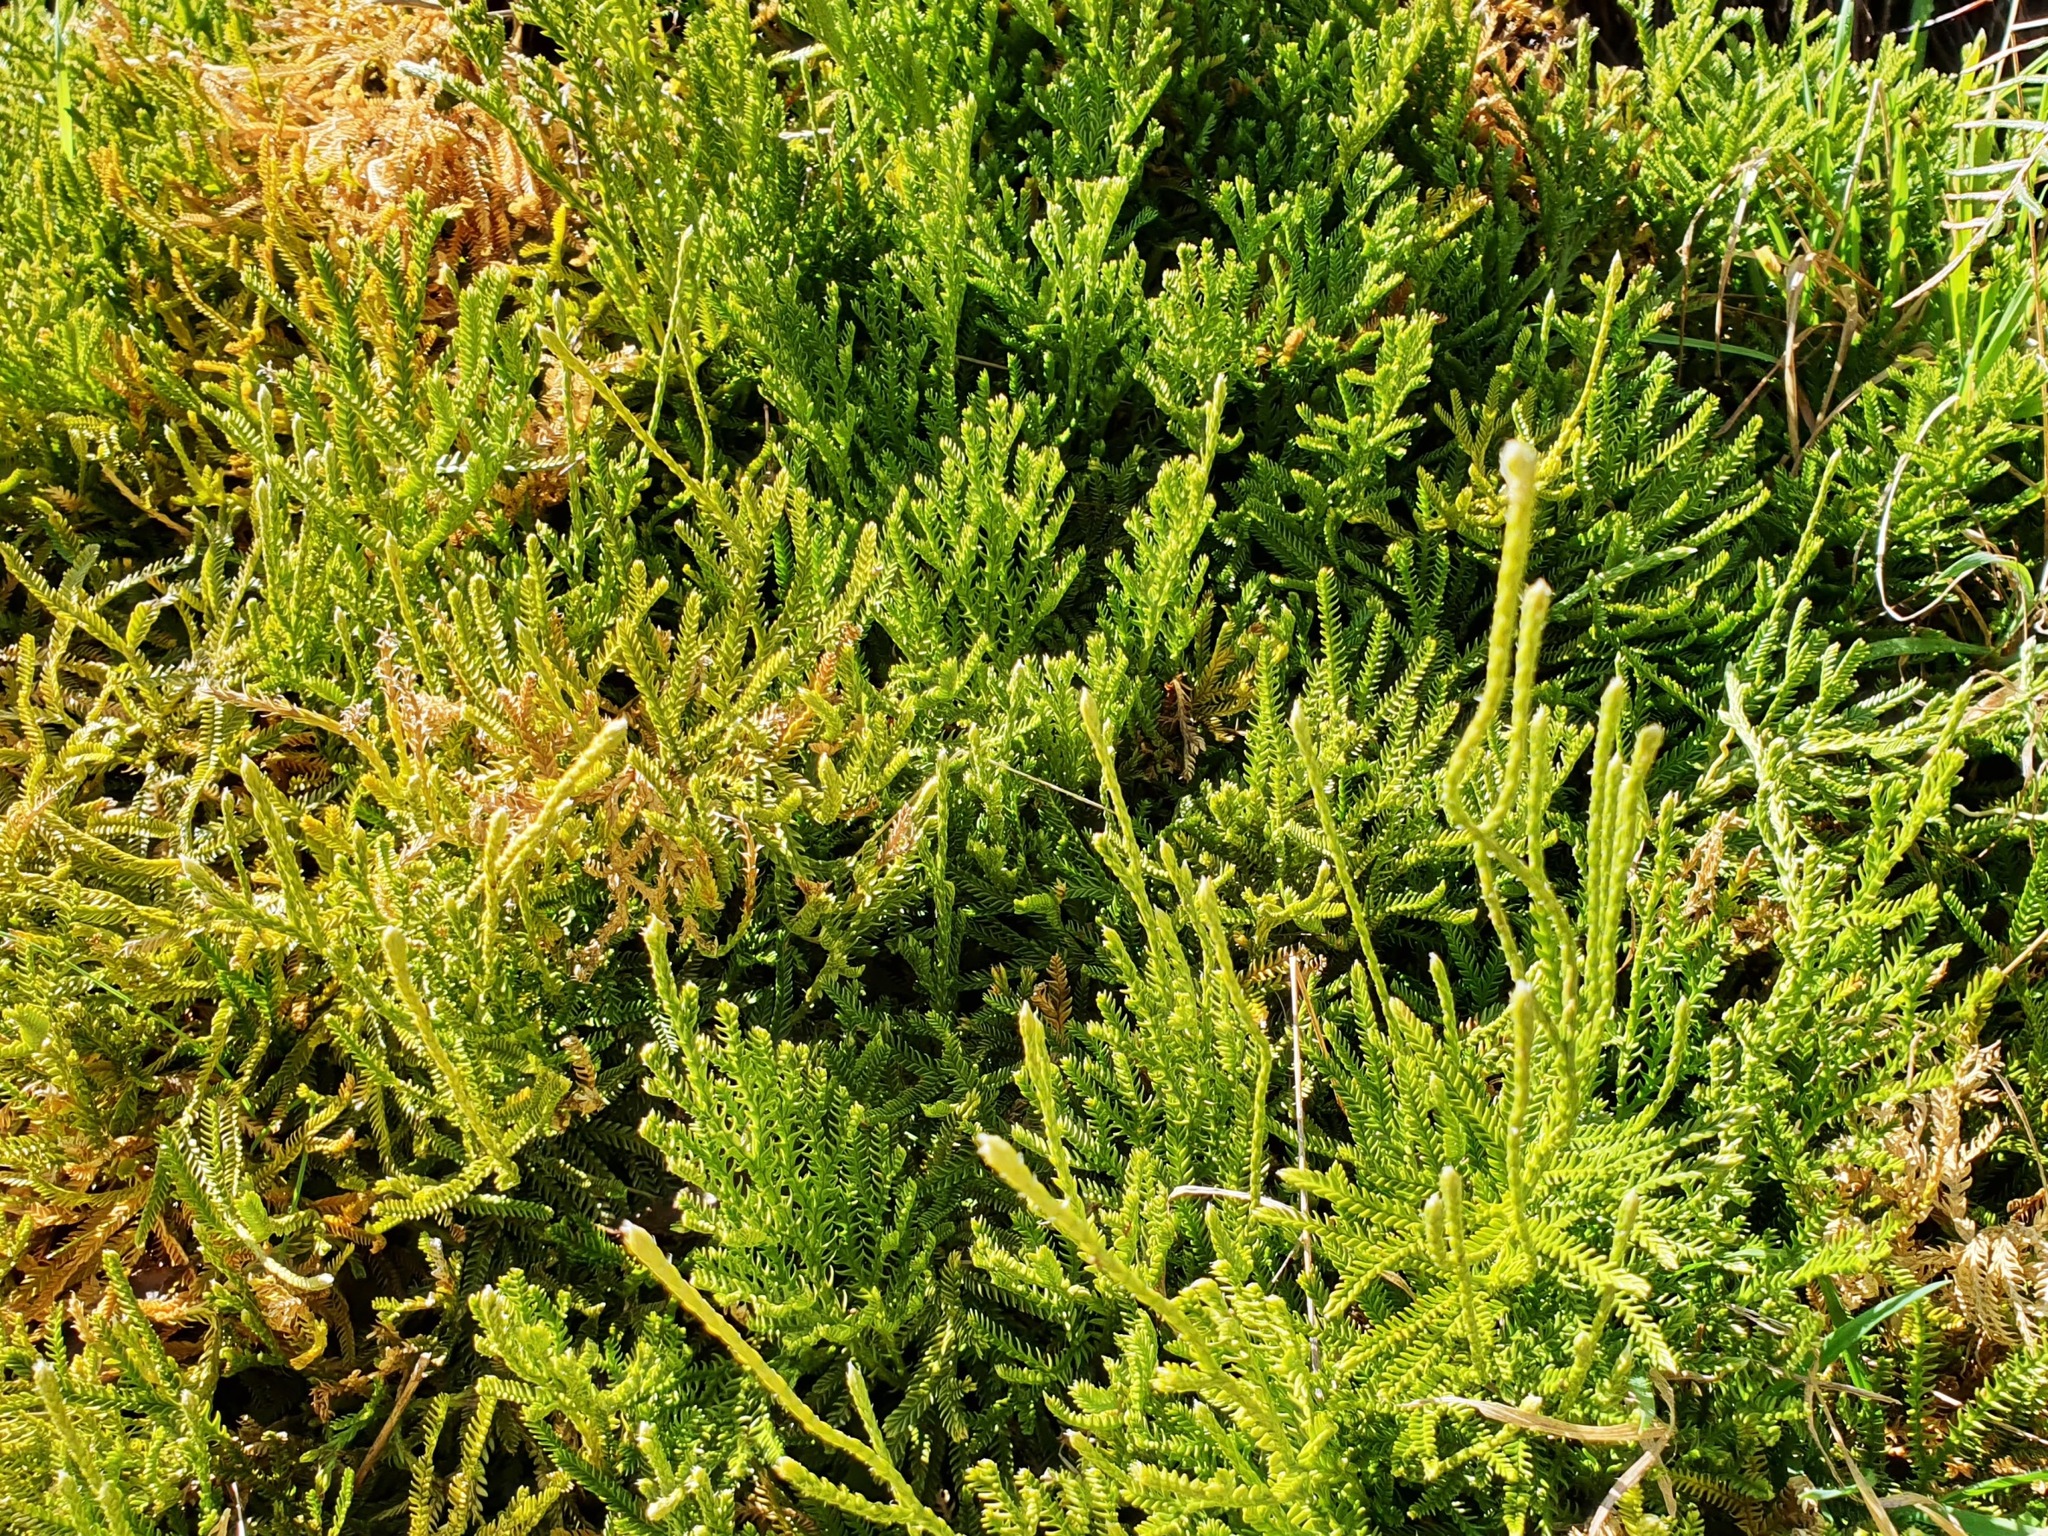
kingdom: Plantae
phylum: Tracheophyta
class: Lycopodiopsida
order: Lycopodiales
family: Lycopodiaceae
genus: Diphasium
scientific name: Diphasium scariosum
